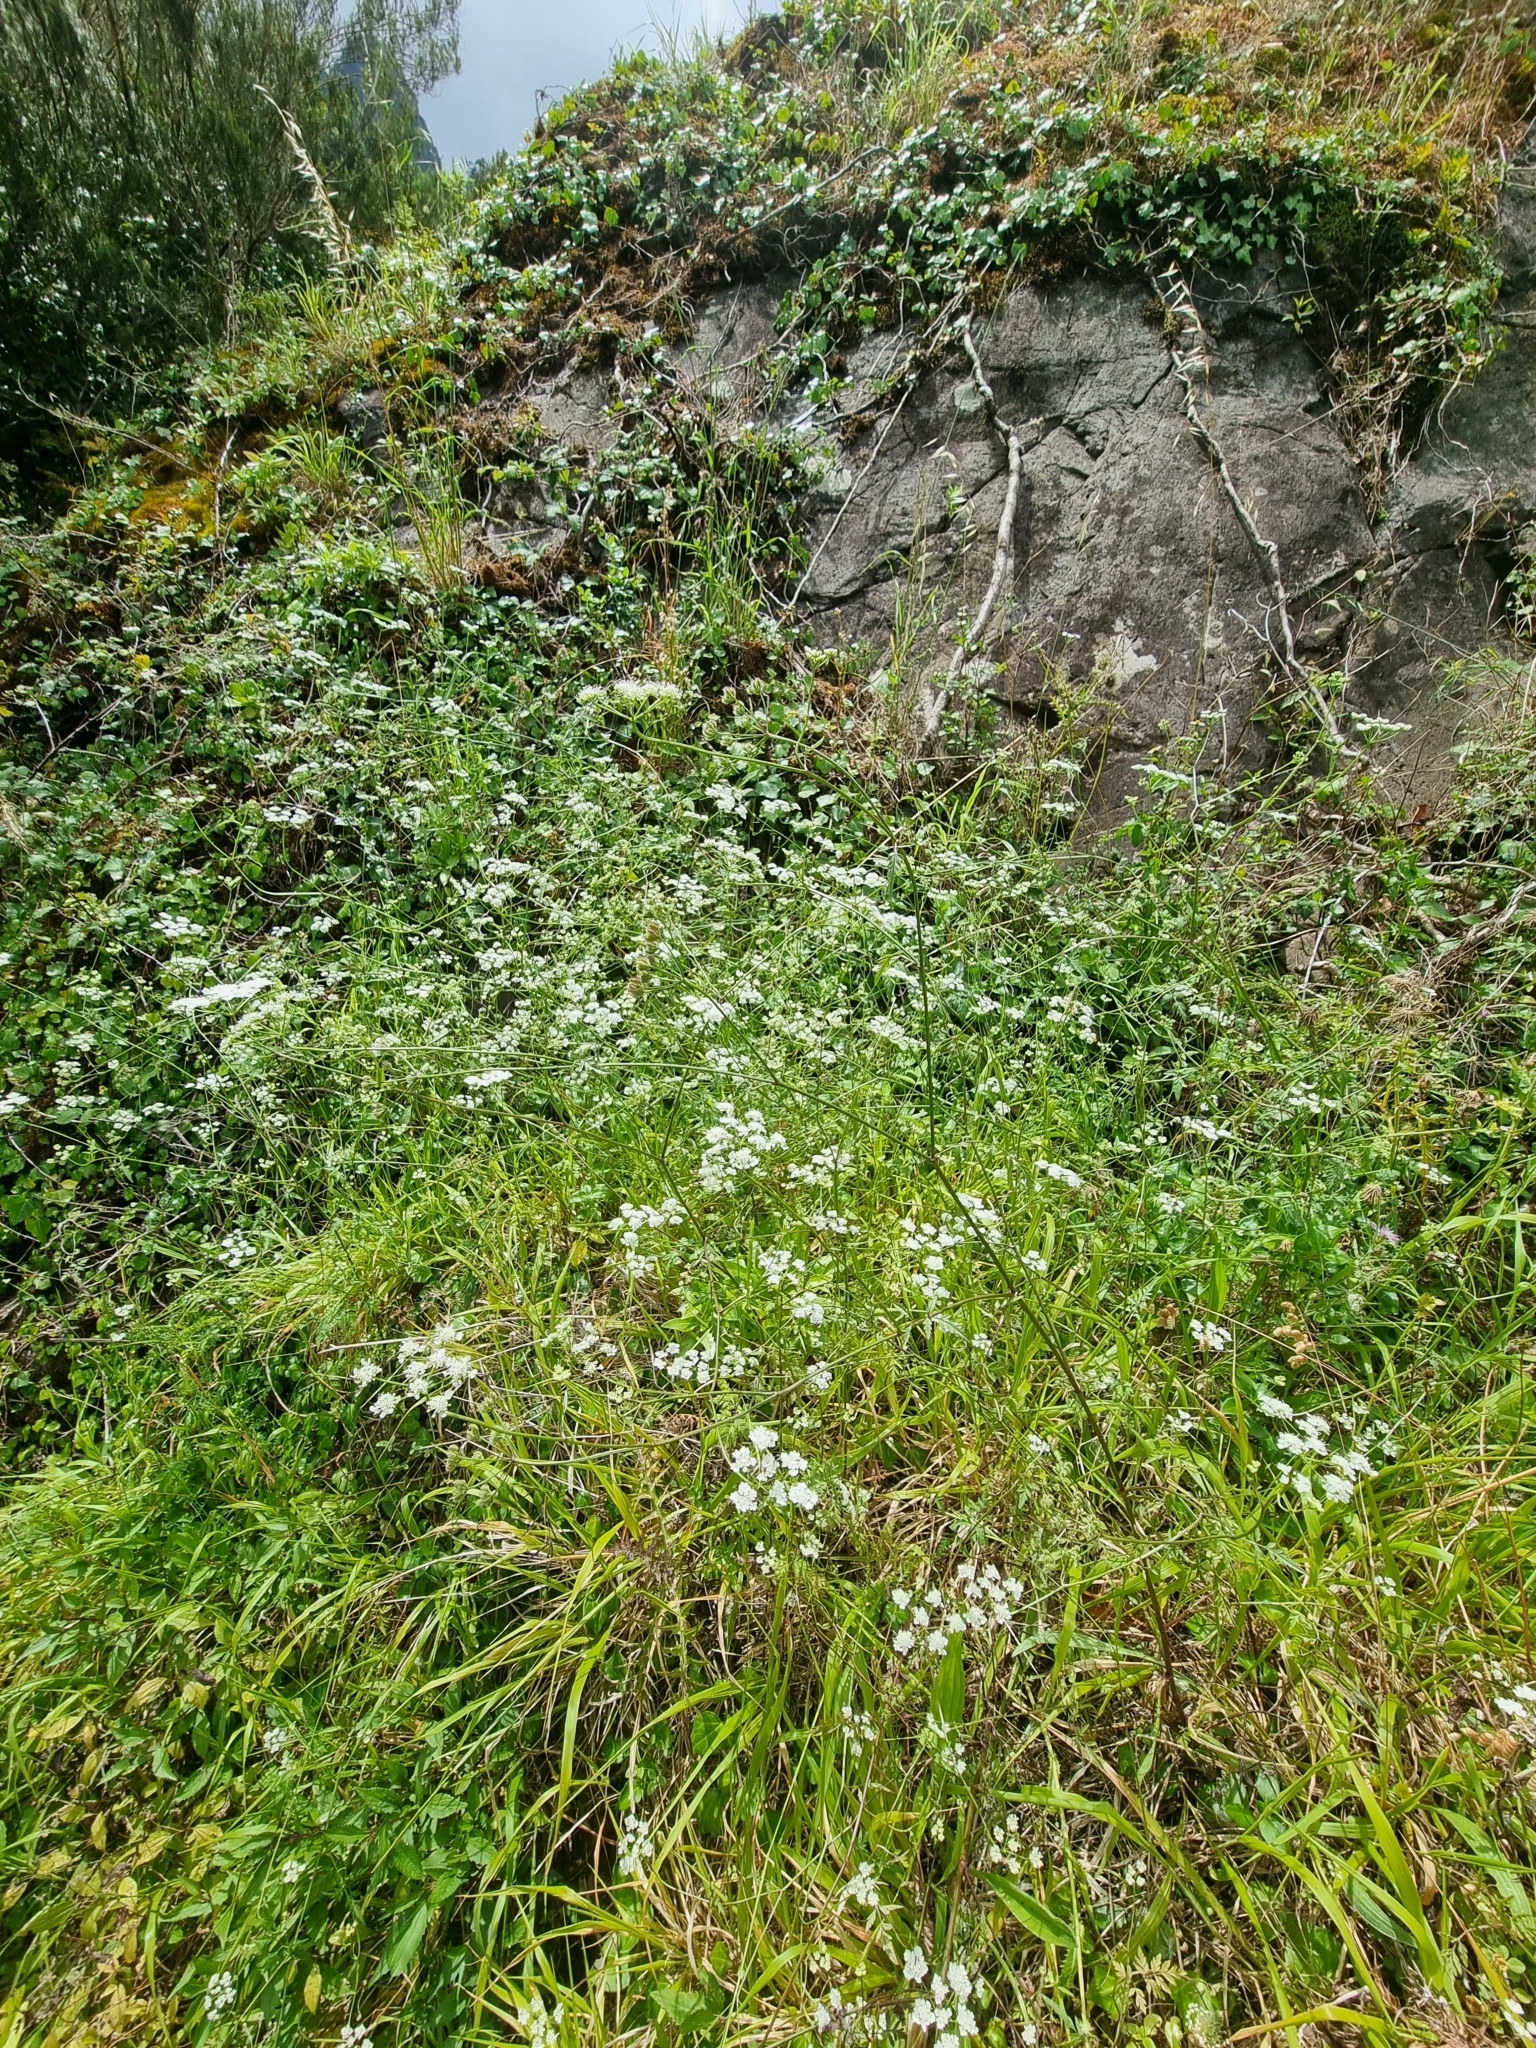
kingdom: Plantae
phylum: Tracheophyta
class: Magnoliopsida
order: Apiales
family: Apiaceae
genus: Torilis
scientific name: Torilis arvensis
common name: Spreading hedge-parsley
